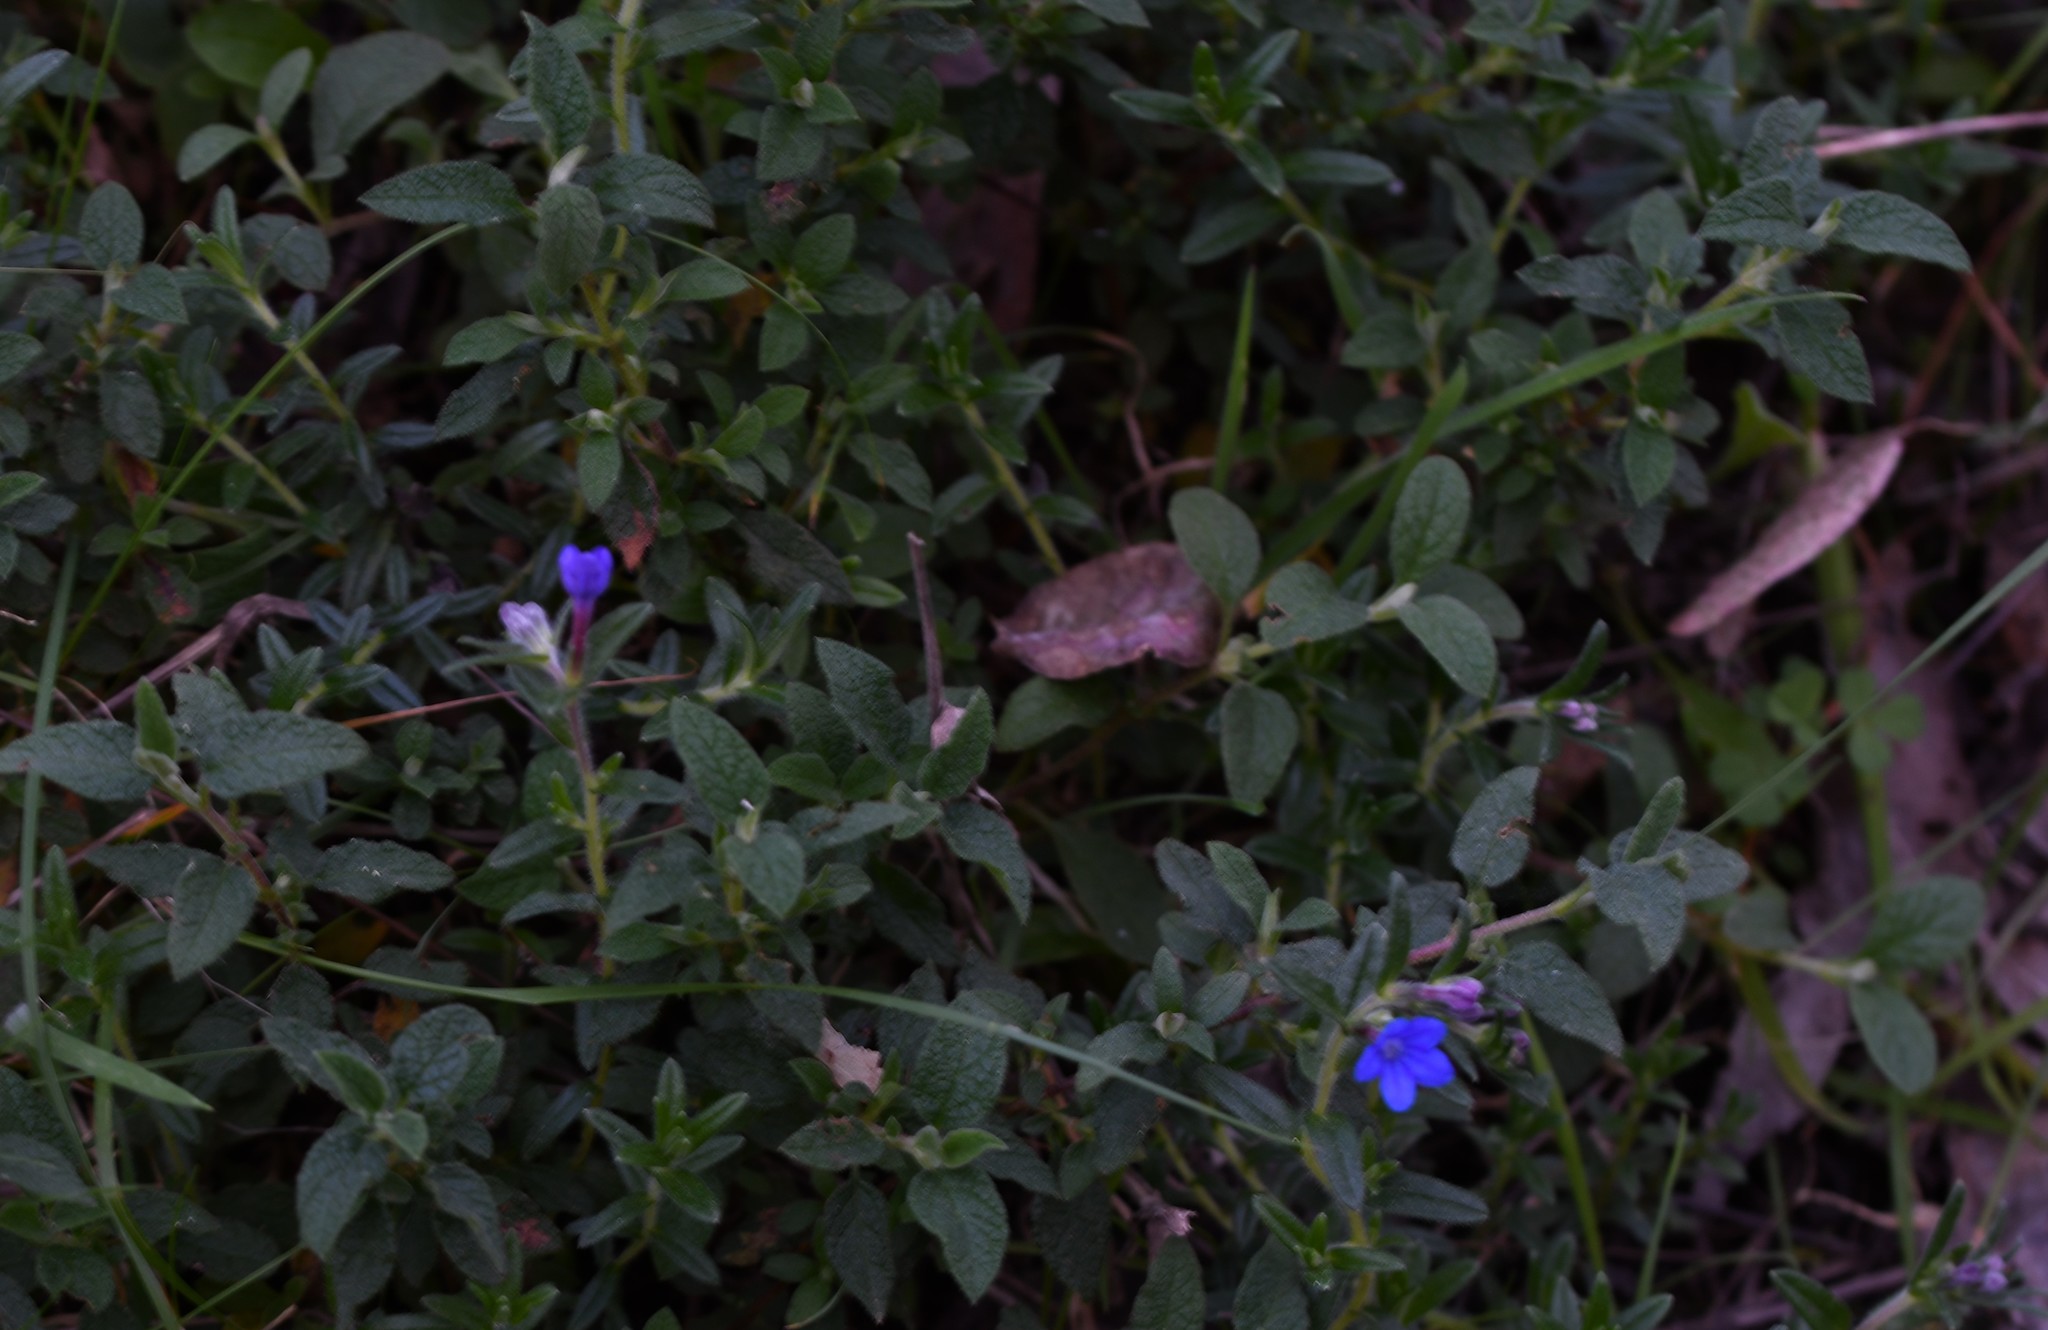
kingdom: Plantae
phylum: Tracheophyta
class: Magnoliopsida
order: Boraginales
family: Boraginaceae
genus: Glandora
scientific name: Glandora prostrata
